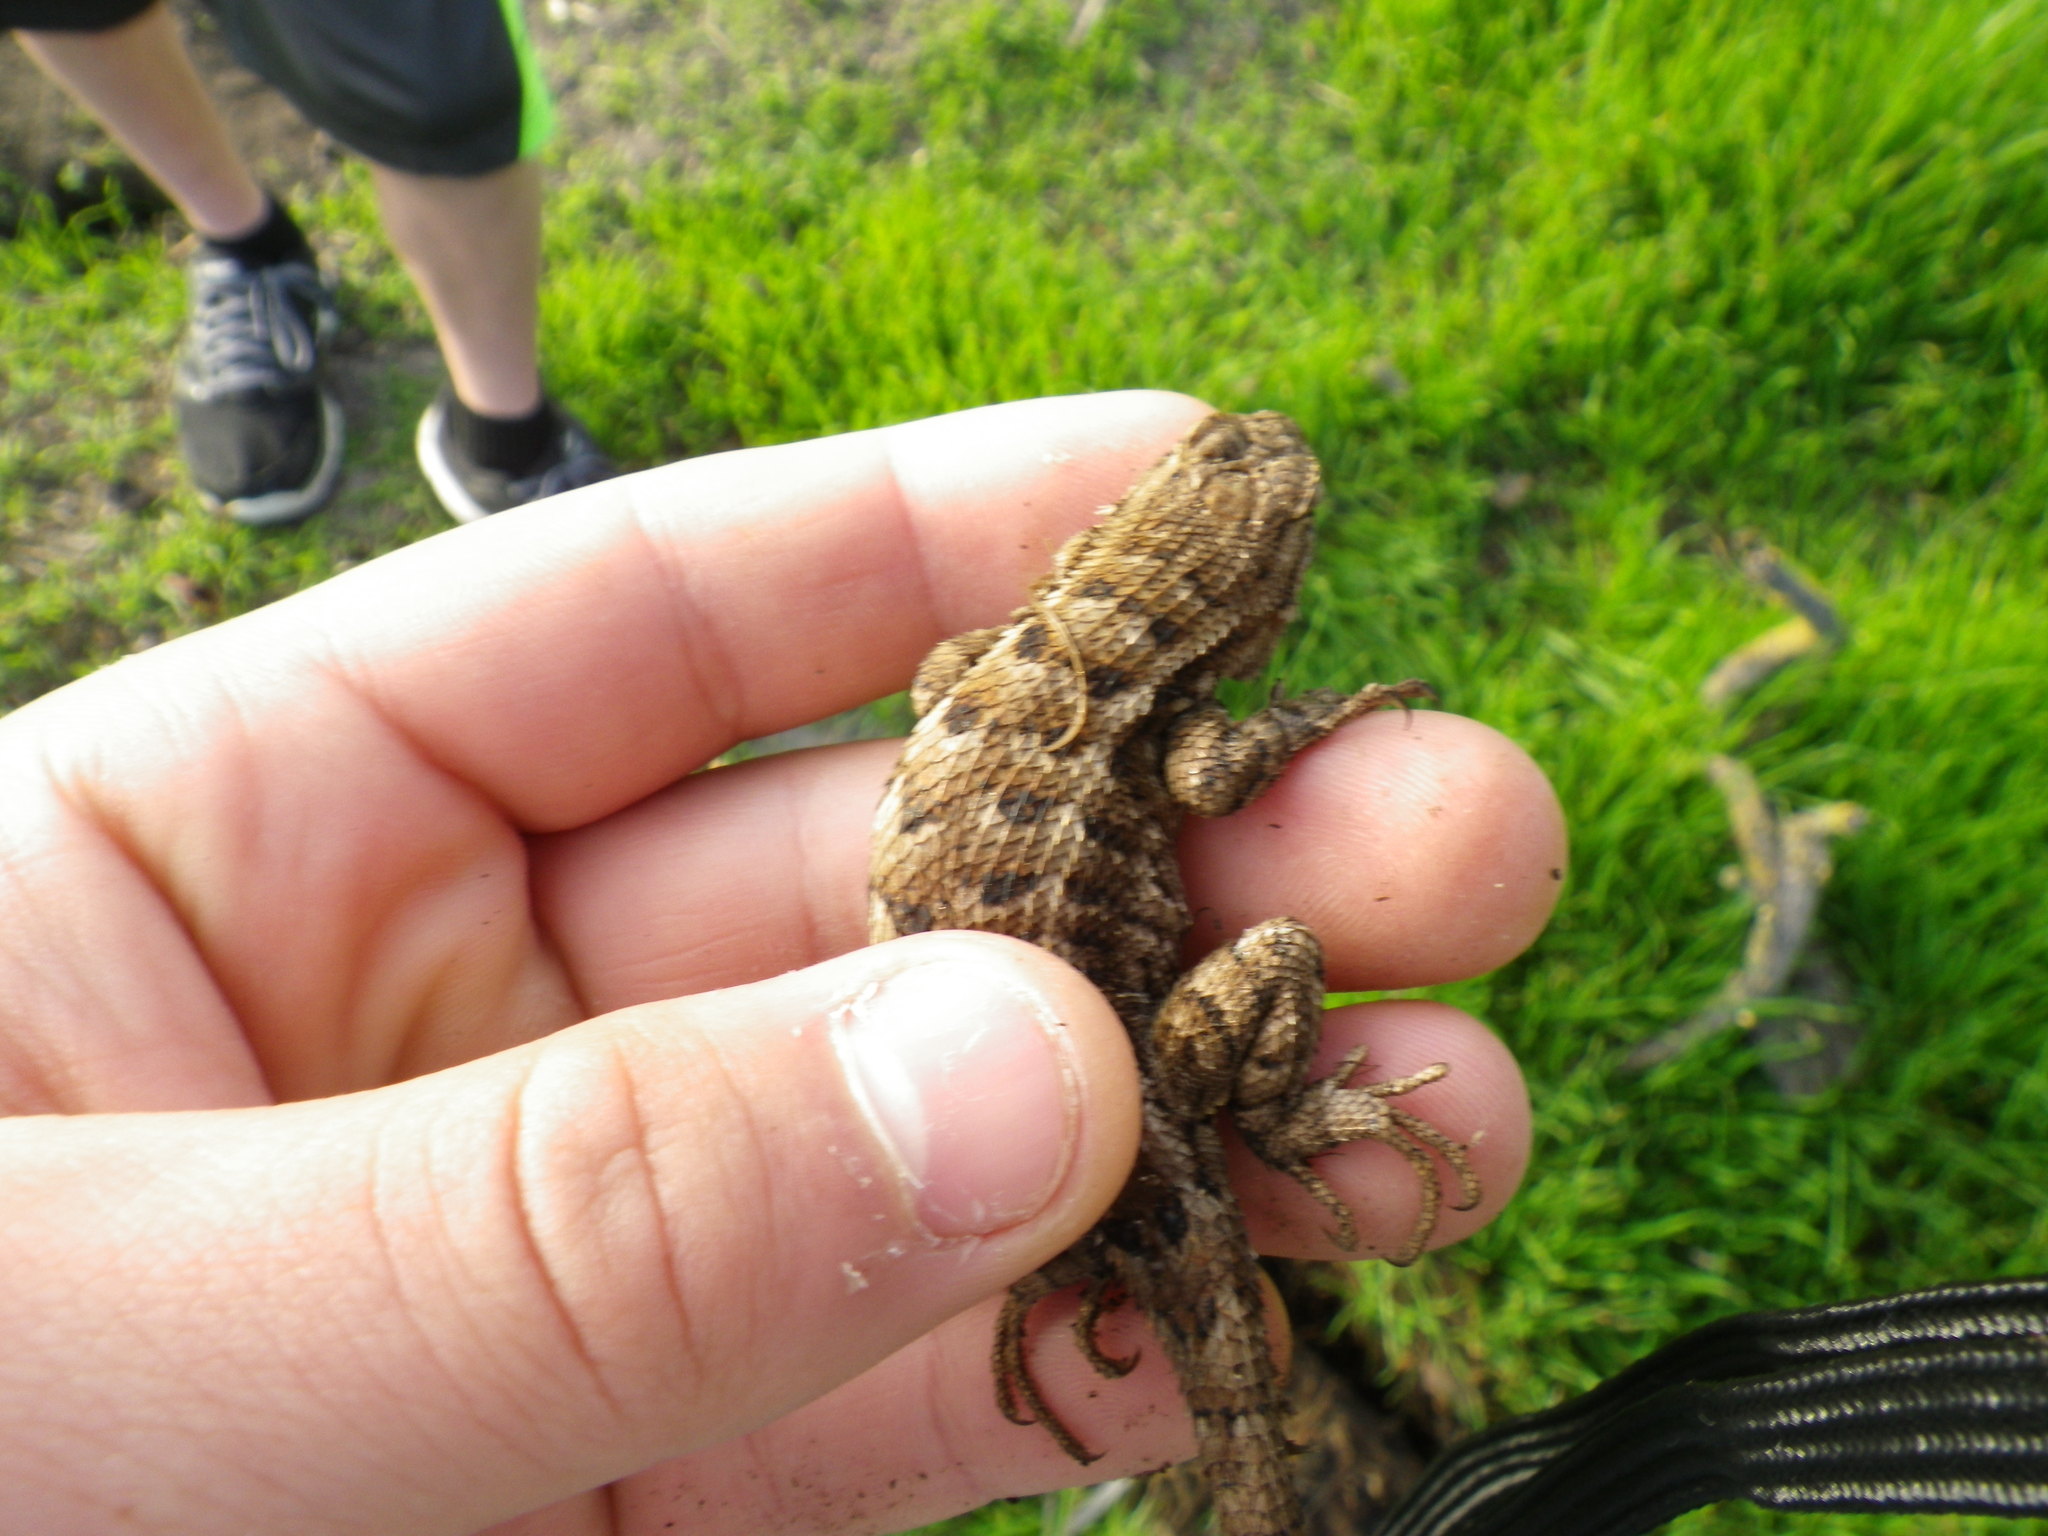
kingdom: Animalia
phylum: Chordata
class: Squamata
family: Phrynosomatidae
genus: Sceloporus
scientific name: Sceloporus occidentalis
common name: Western fence lizard
